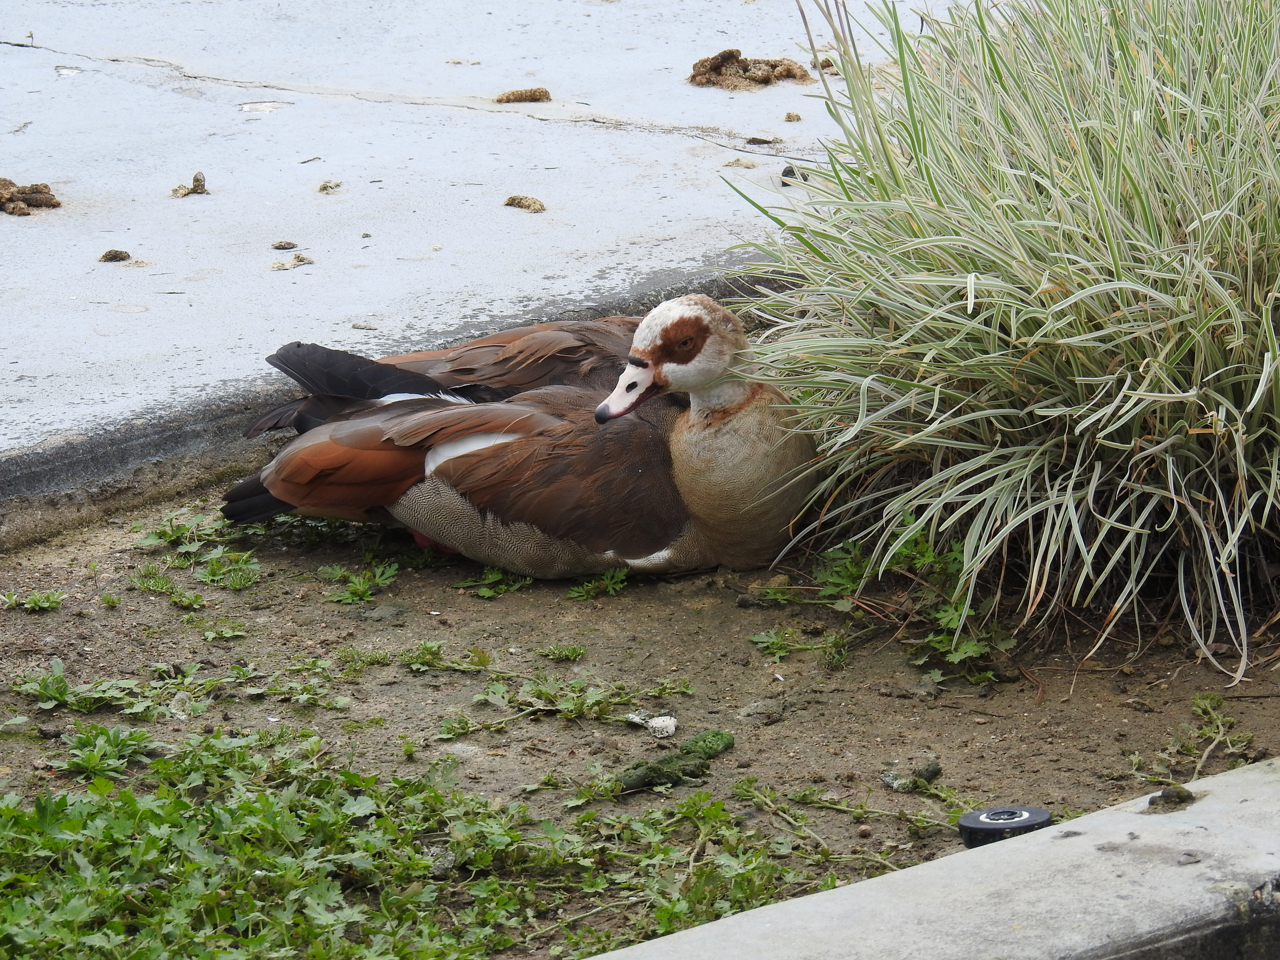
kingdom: Animalia
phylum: Chordata
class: Aves
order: Anseriformes
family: Anatidae
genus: Alopochen
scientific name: Alopochen aegyptiaca
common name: Egyptian goose
